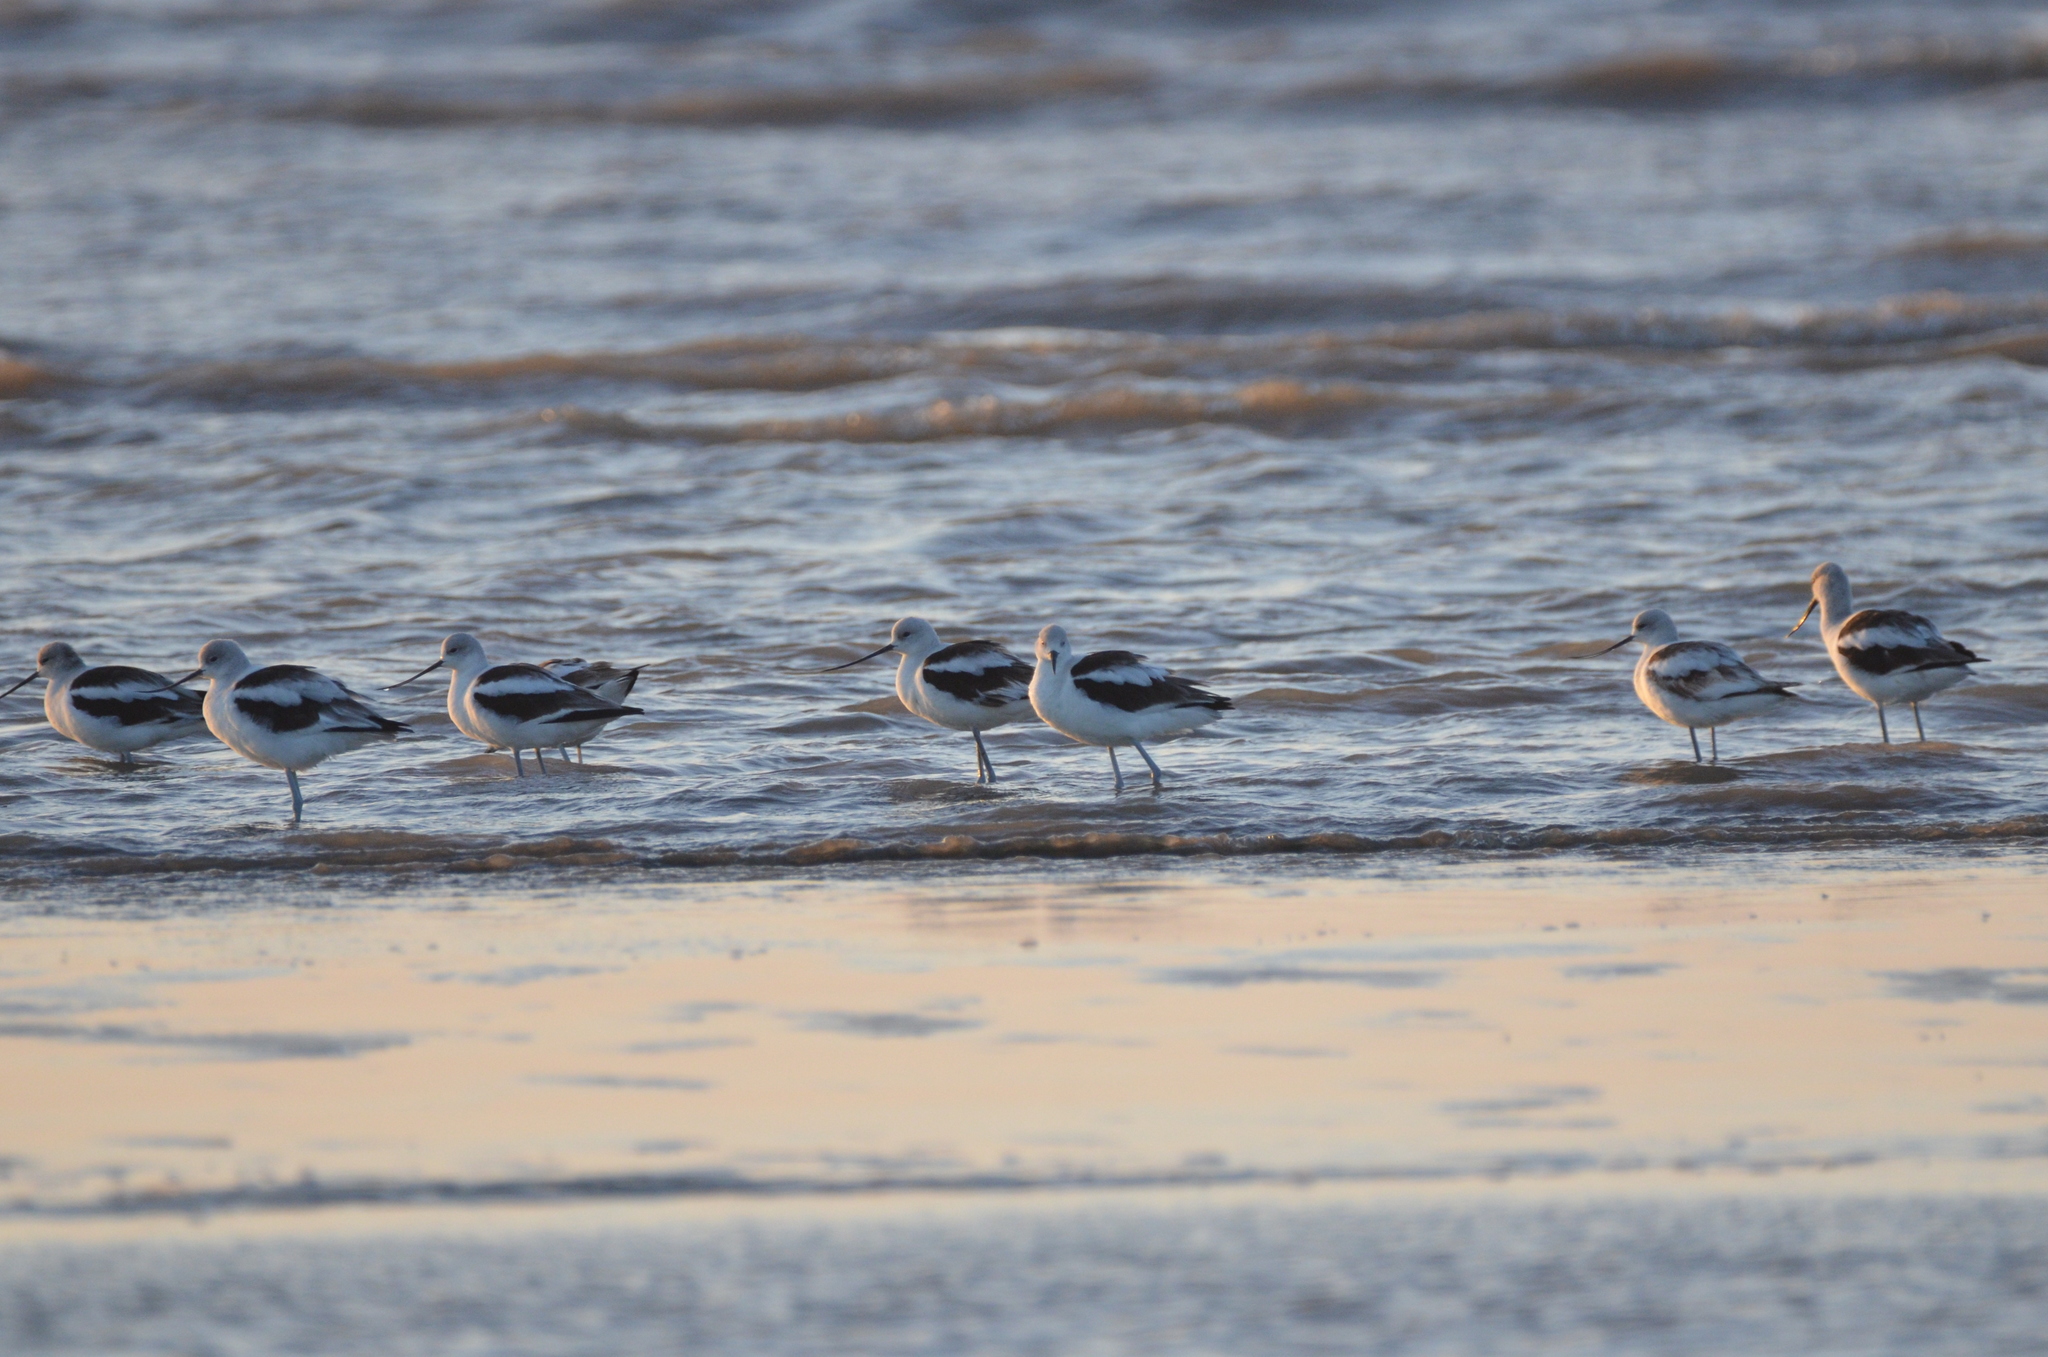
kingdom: Animalia
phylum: Chordata
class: Aves
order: Charadriiformes
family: Recurvirostridae
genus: Recurvirostra
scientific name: Recurvirostra americana
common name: American avocet
